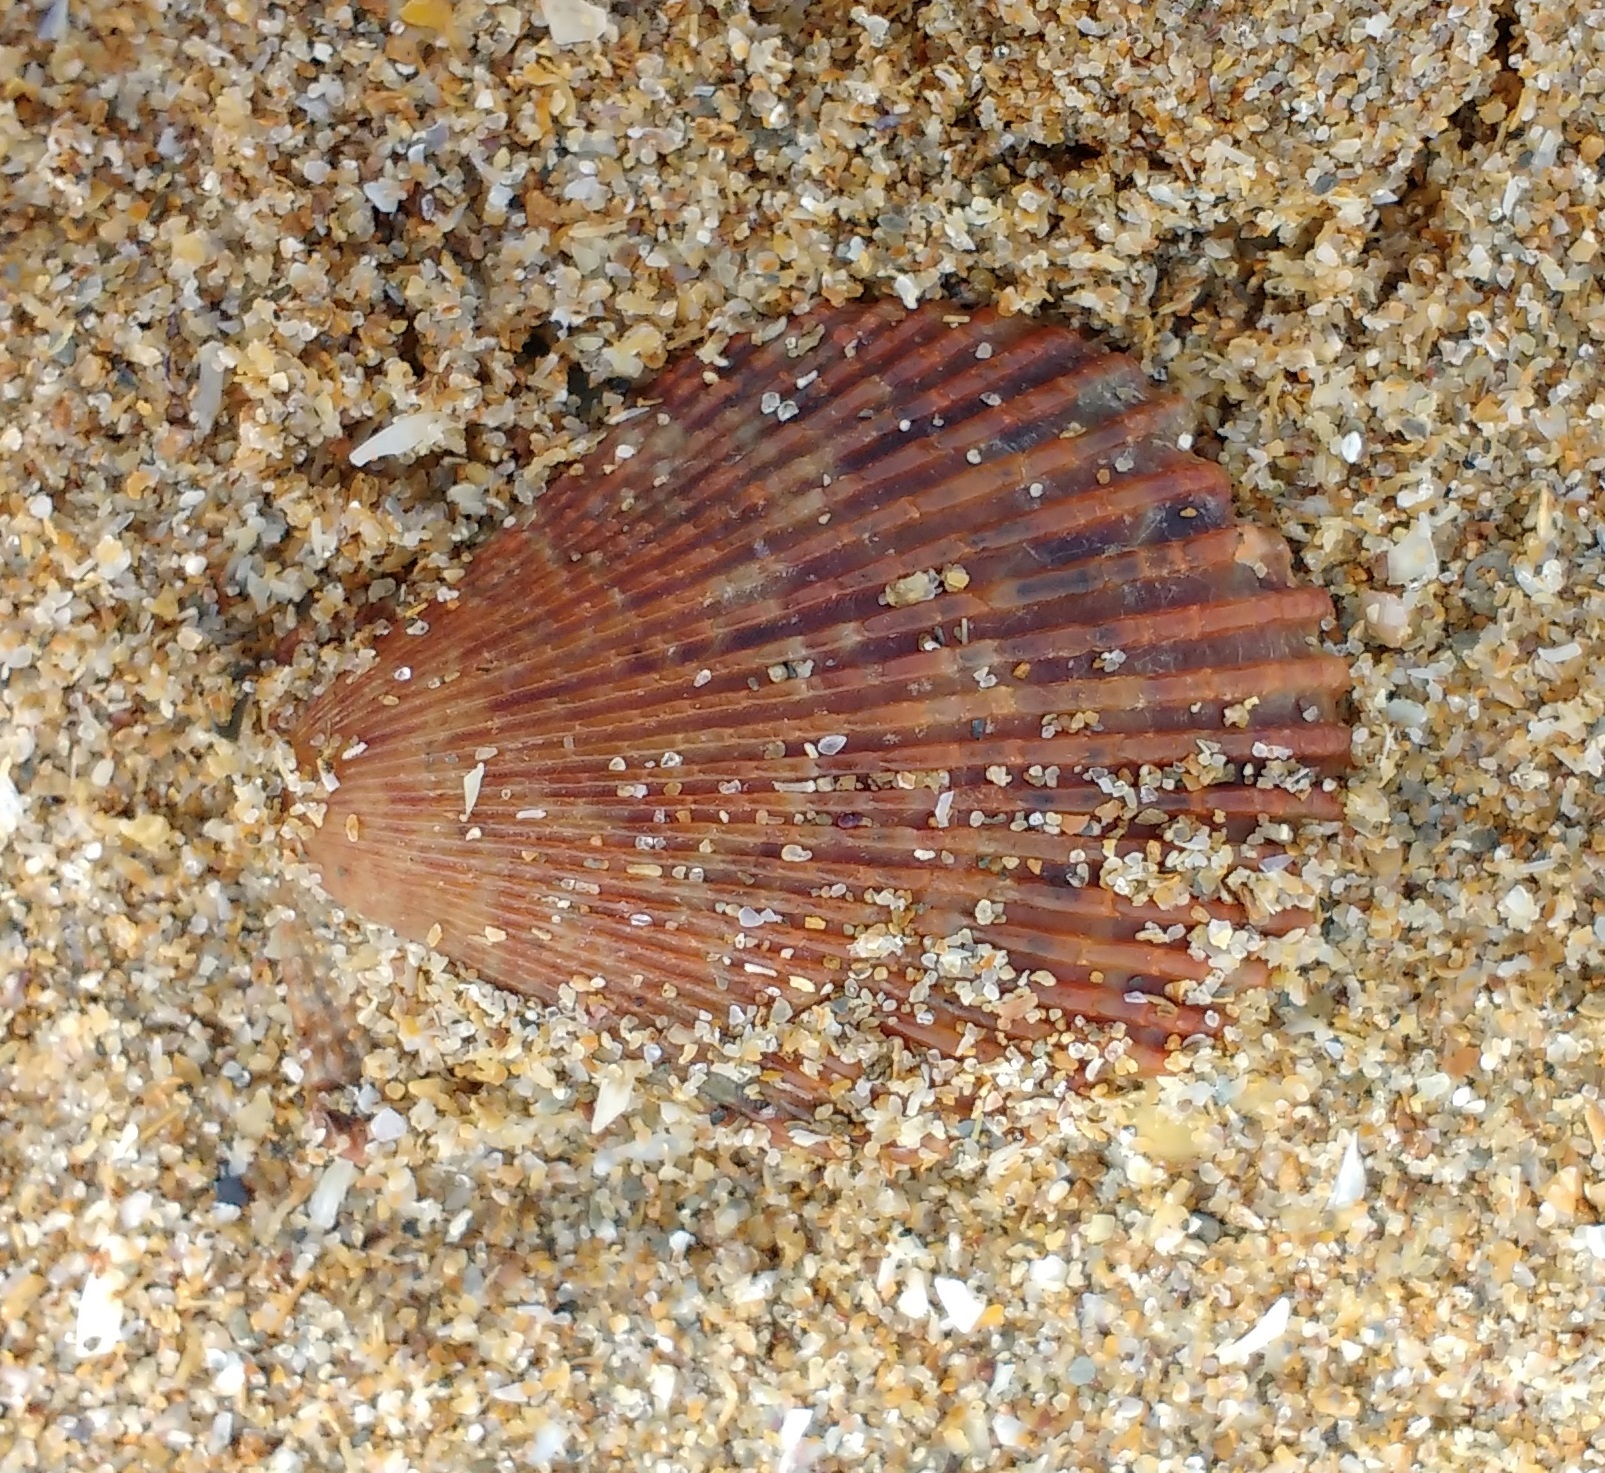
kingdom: Animalia
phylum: Mollusca
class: Bivalvia
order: Pectinida
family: Pectinidae
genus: Mimachlamys
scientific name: Mimachlamys varia
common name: Variegated scallop
